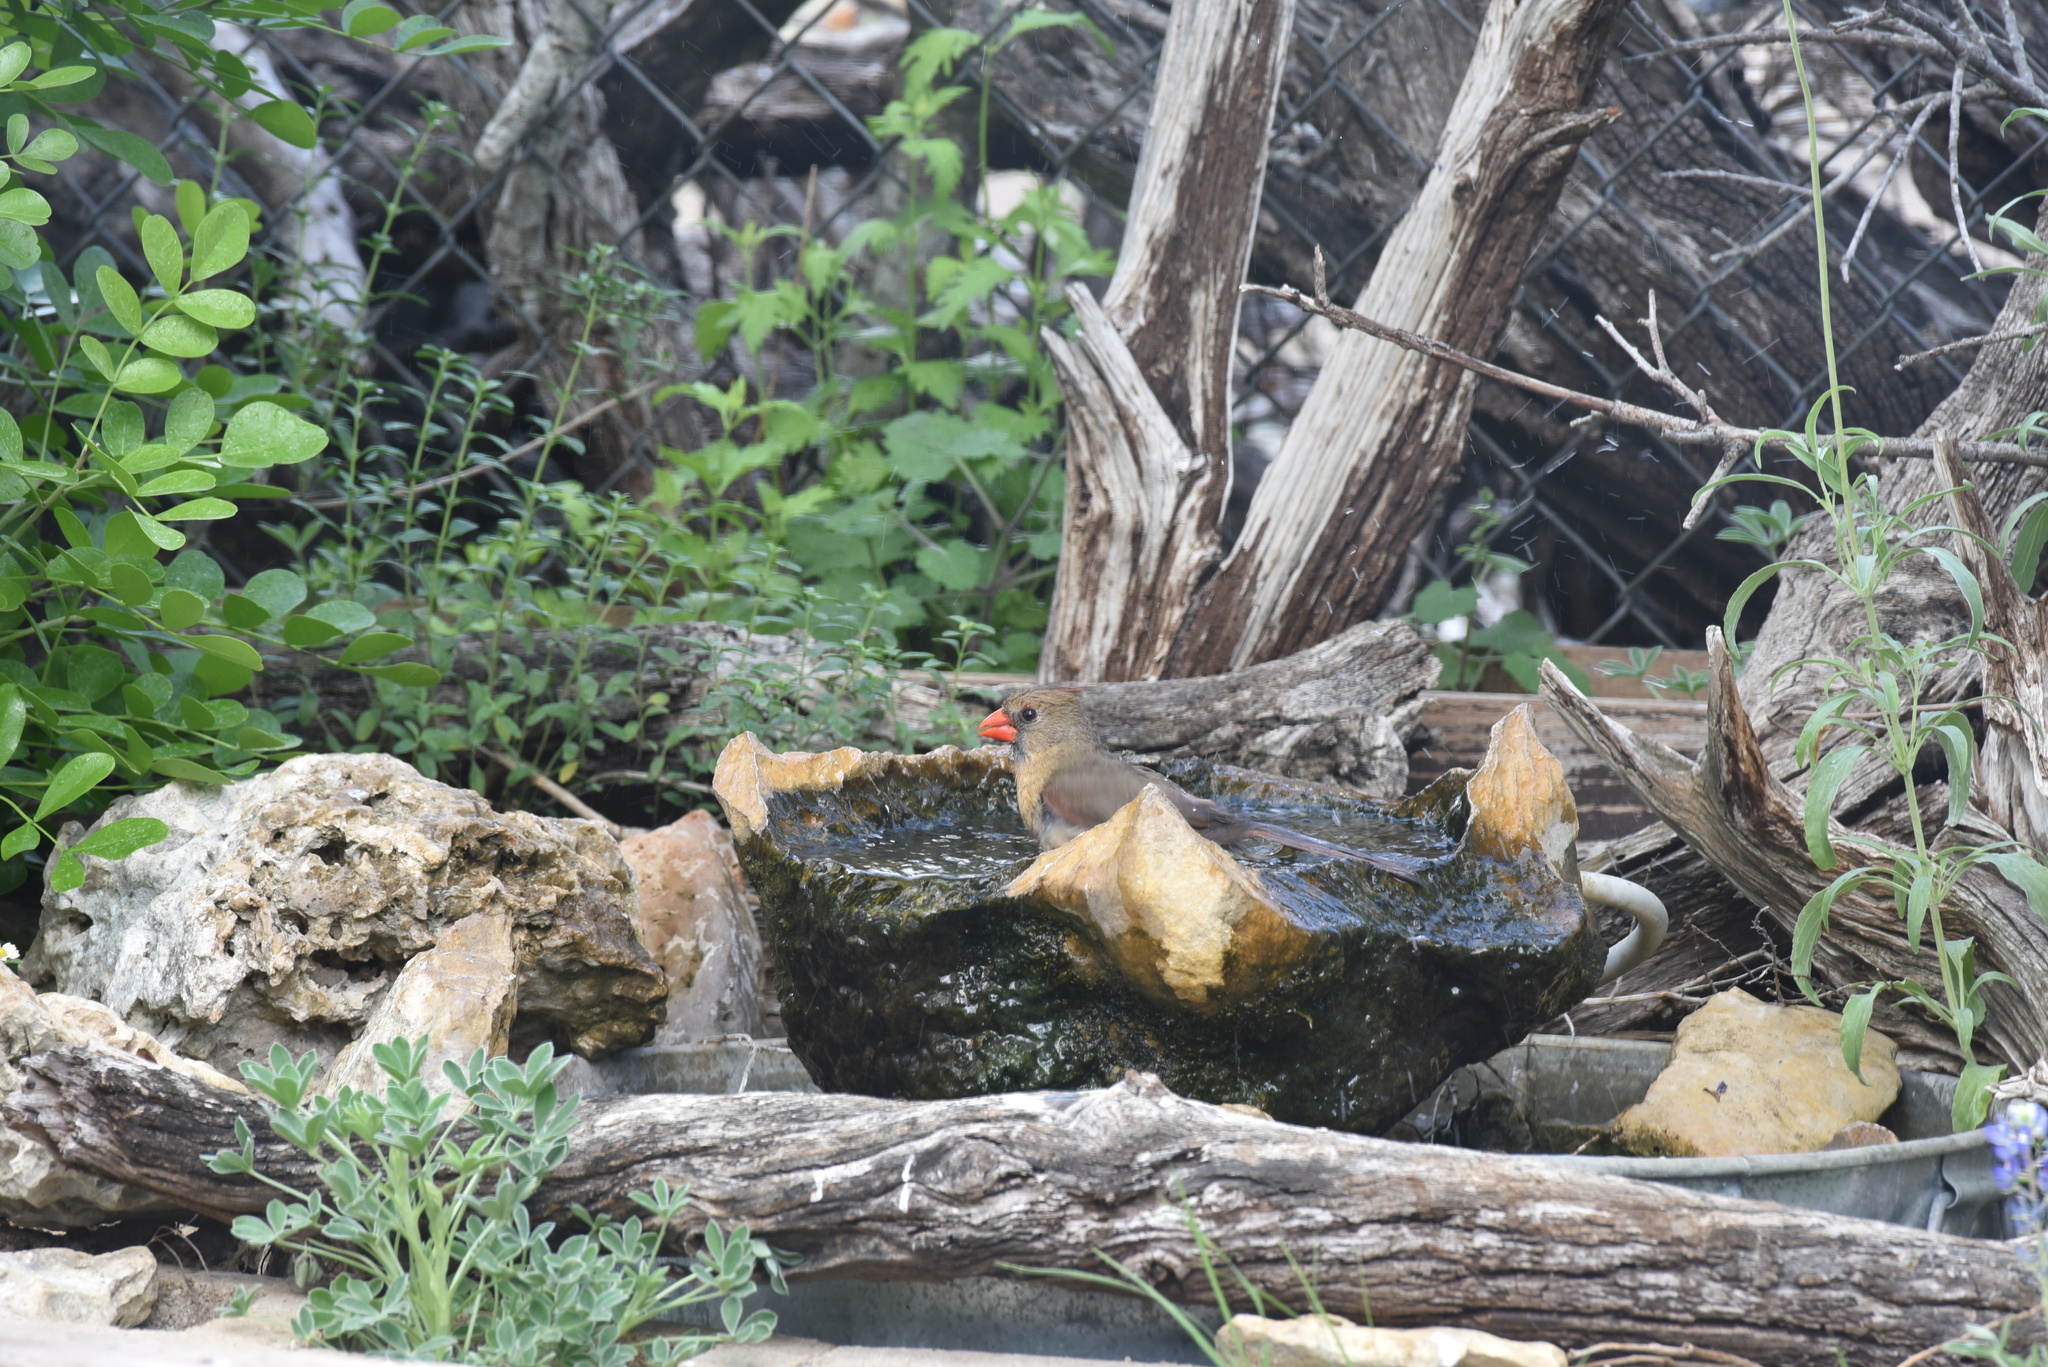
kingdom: Animalia
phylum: Chordata
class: Aves
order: Passeriformes
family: Cardinalidae
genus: Cardinalis
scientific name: Cardinalis cardinalis
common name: Northern cardinal
